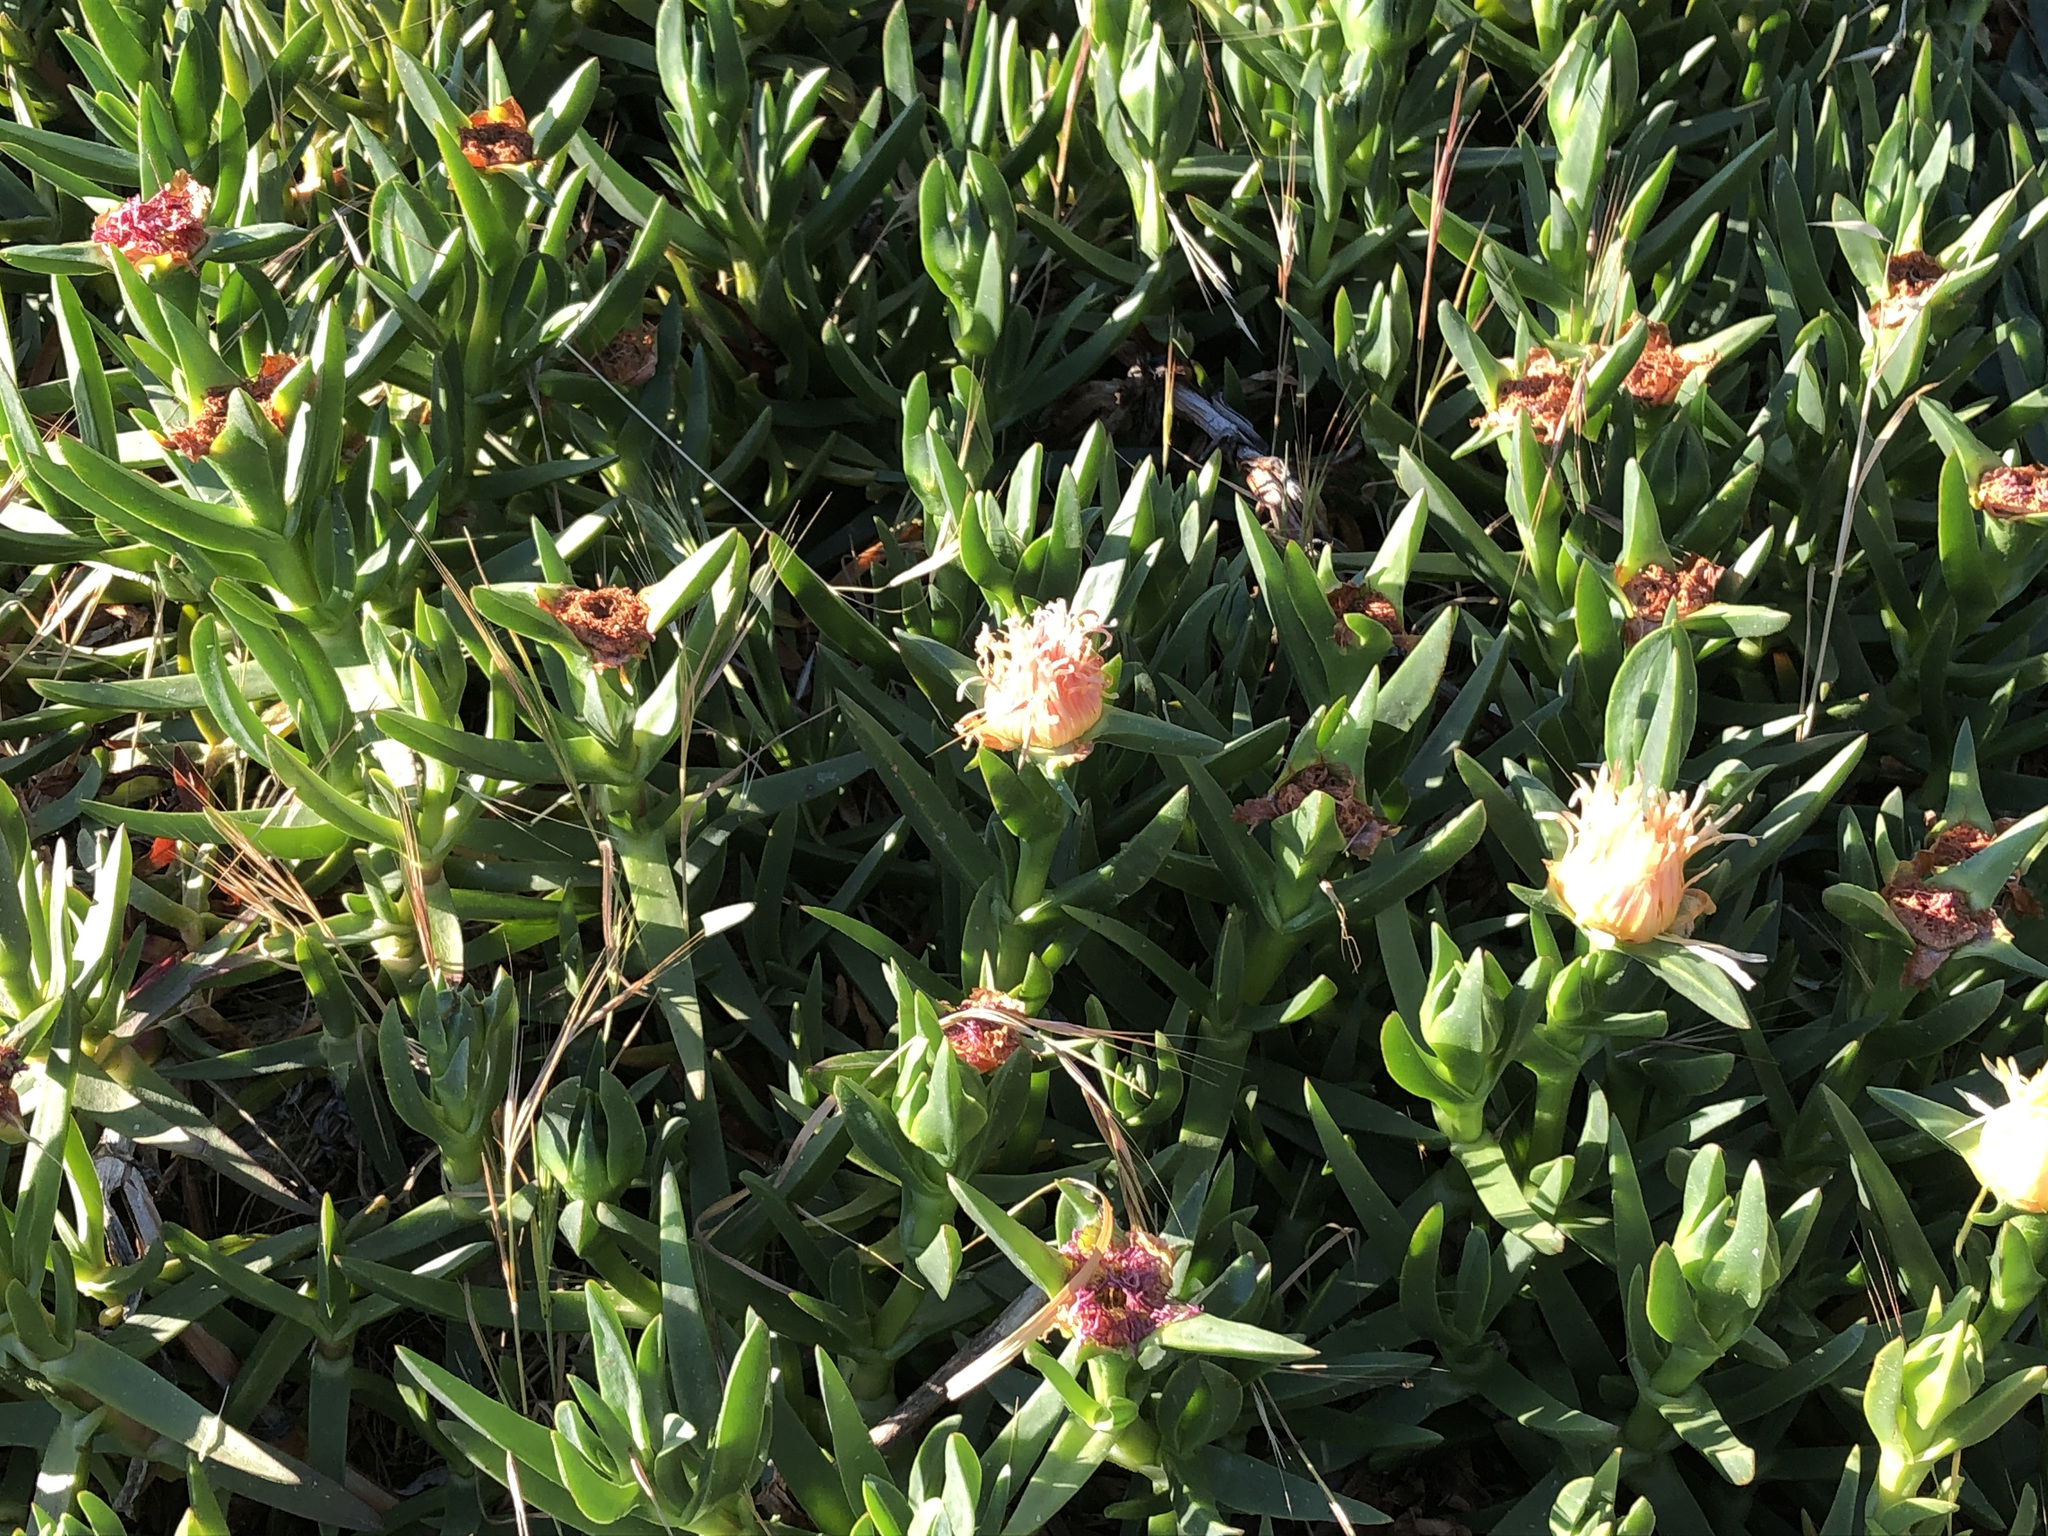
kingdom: Plantae
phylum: Tracheophyta
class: Magnoliopsida
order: Caryophyllales
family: Aizoaceae
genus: Carpobrotus
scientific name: Carpobrotus edulis
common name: Hottentot-fig
